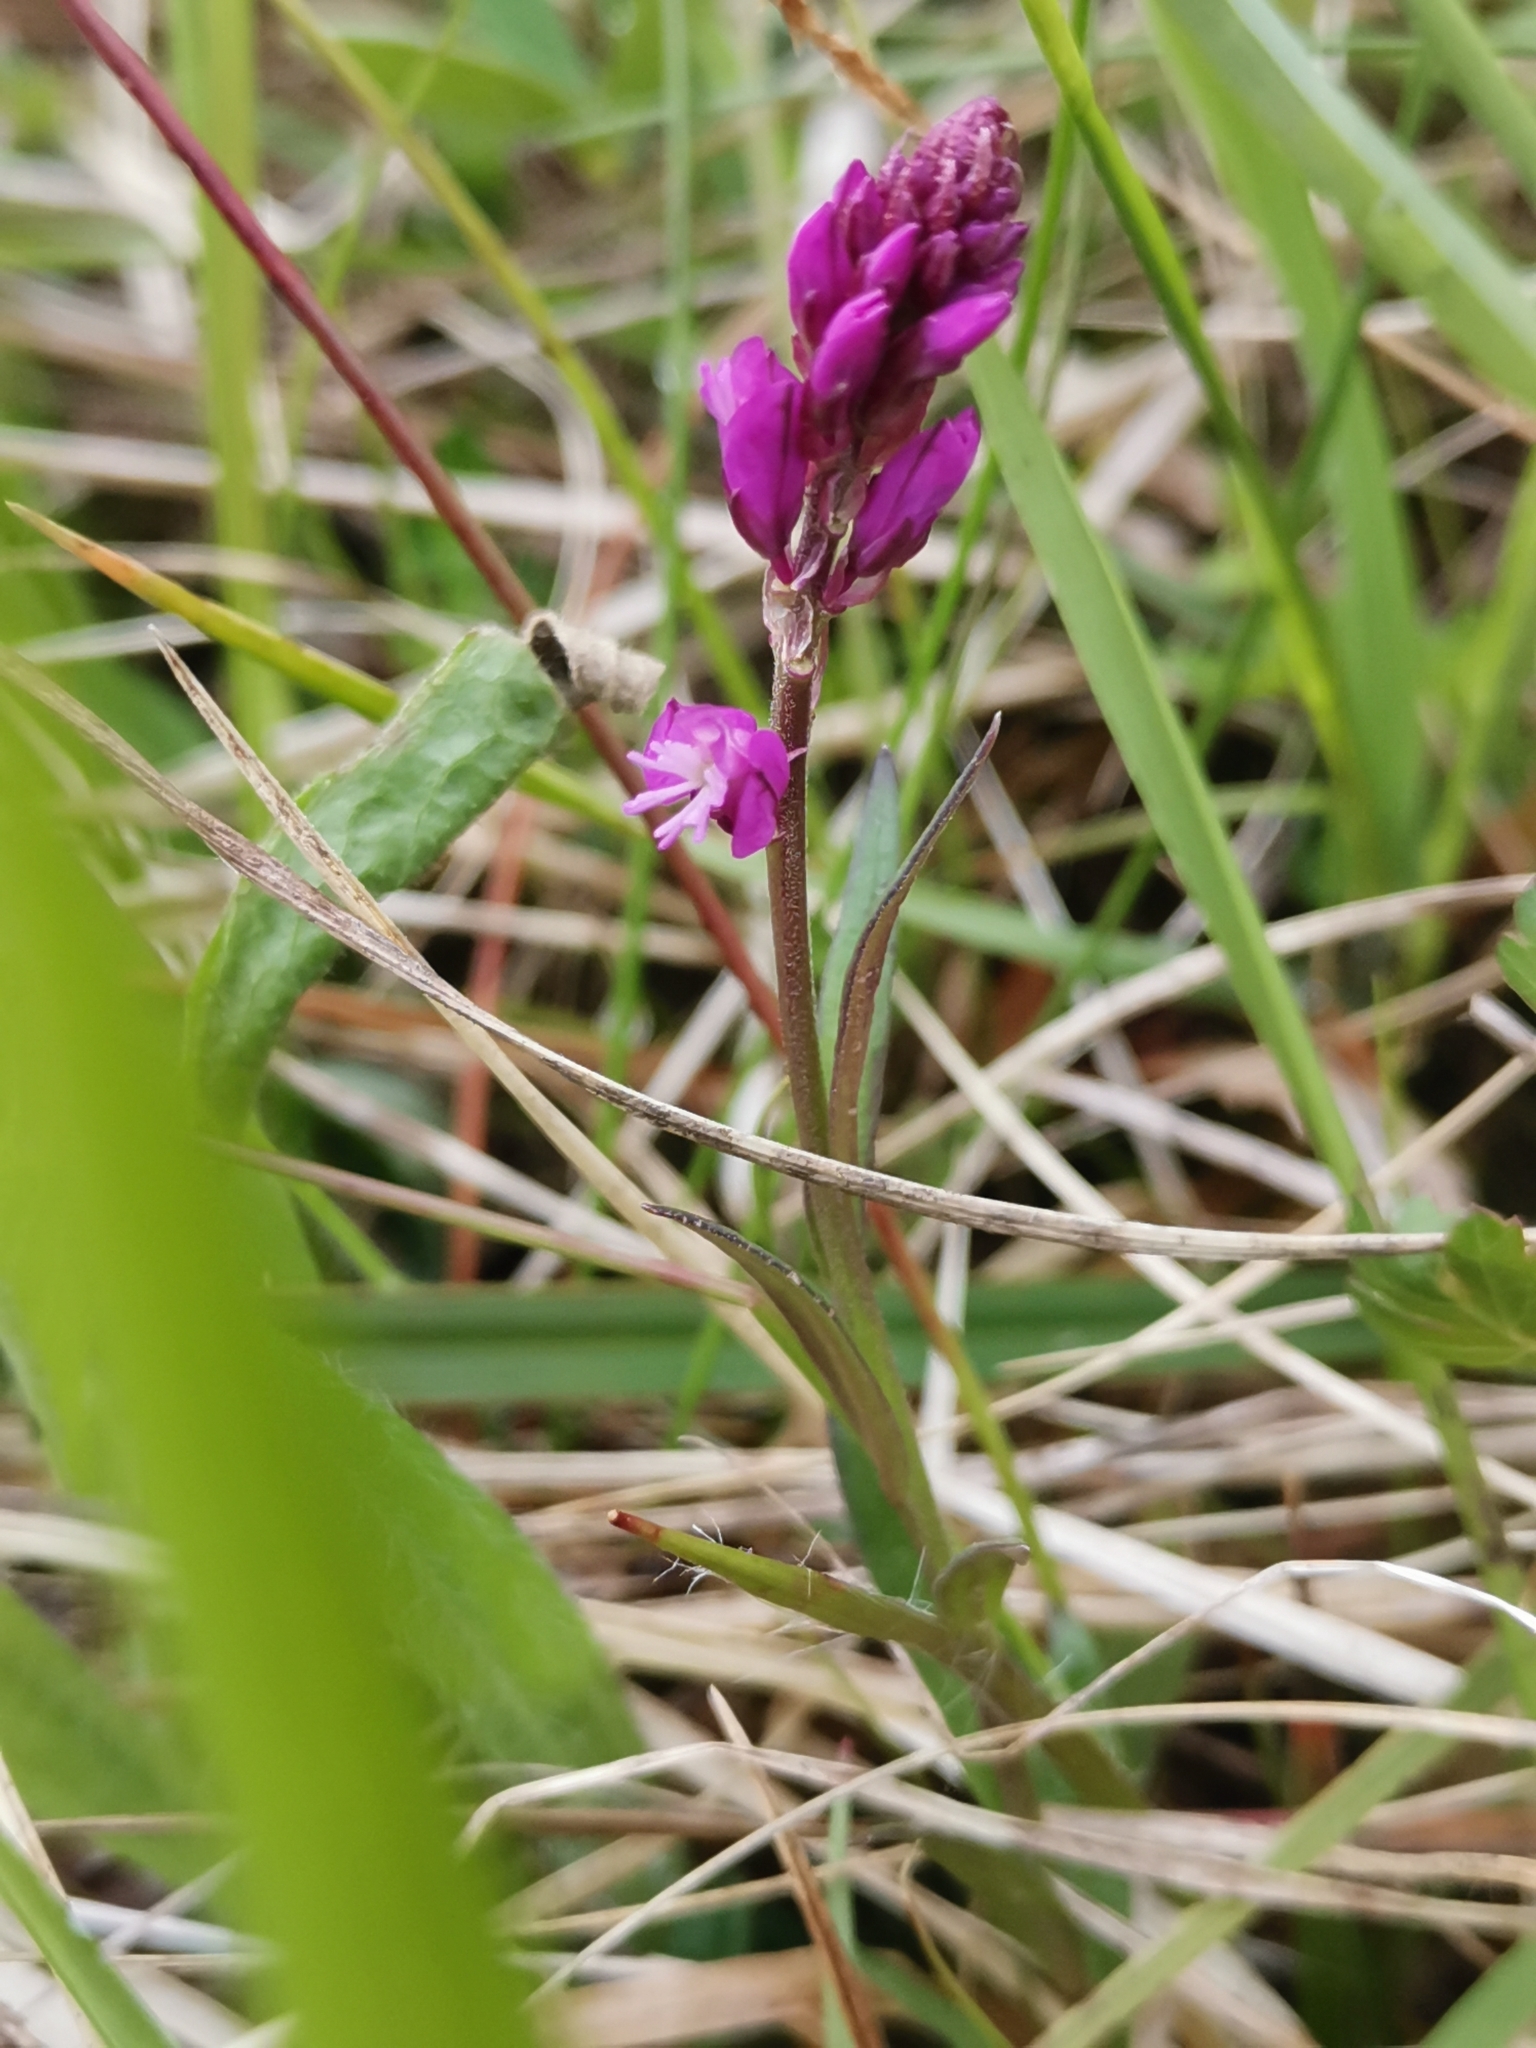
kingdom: Plantae
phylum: Tracheophyta
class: Magnoliopsida
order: Fabales
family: Polygalaceae
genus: Polygala
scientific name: Polygala comosa
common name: Tufted milkwort
